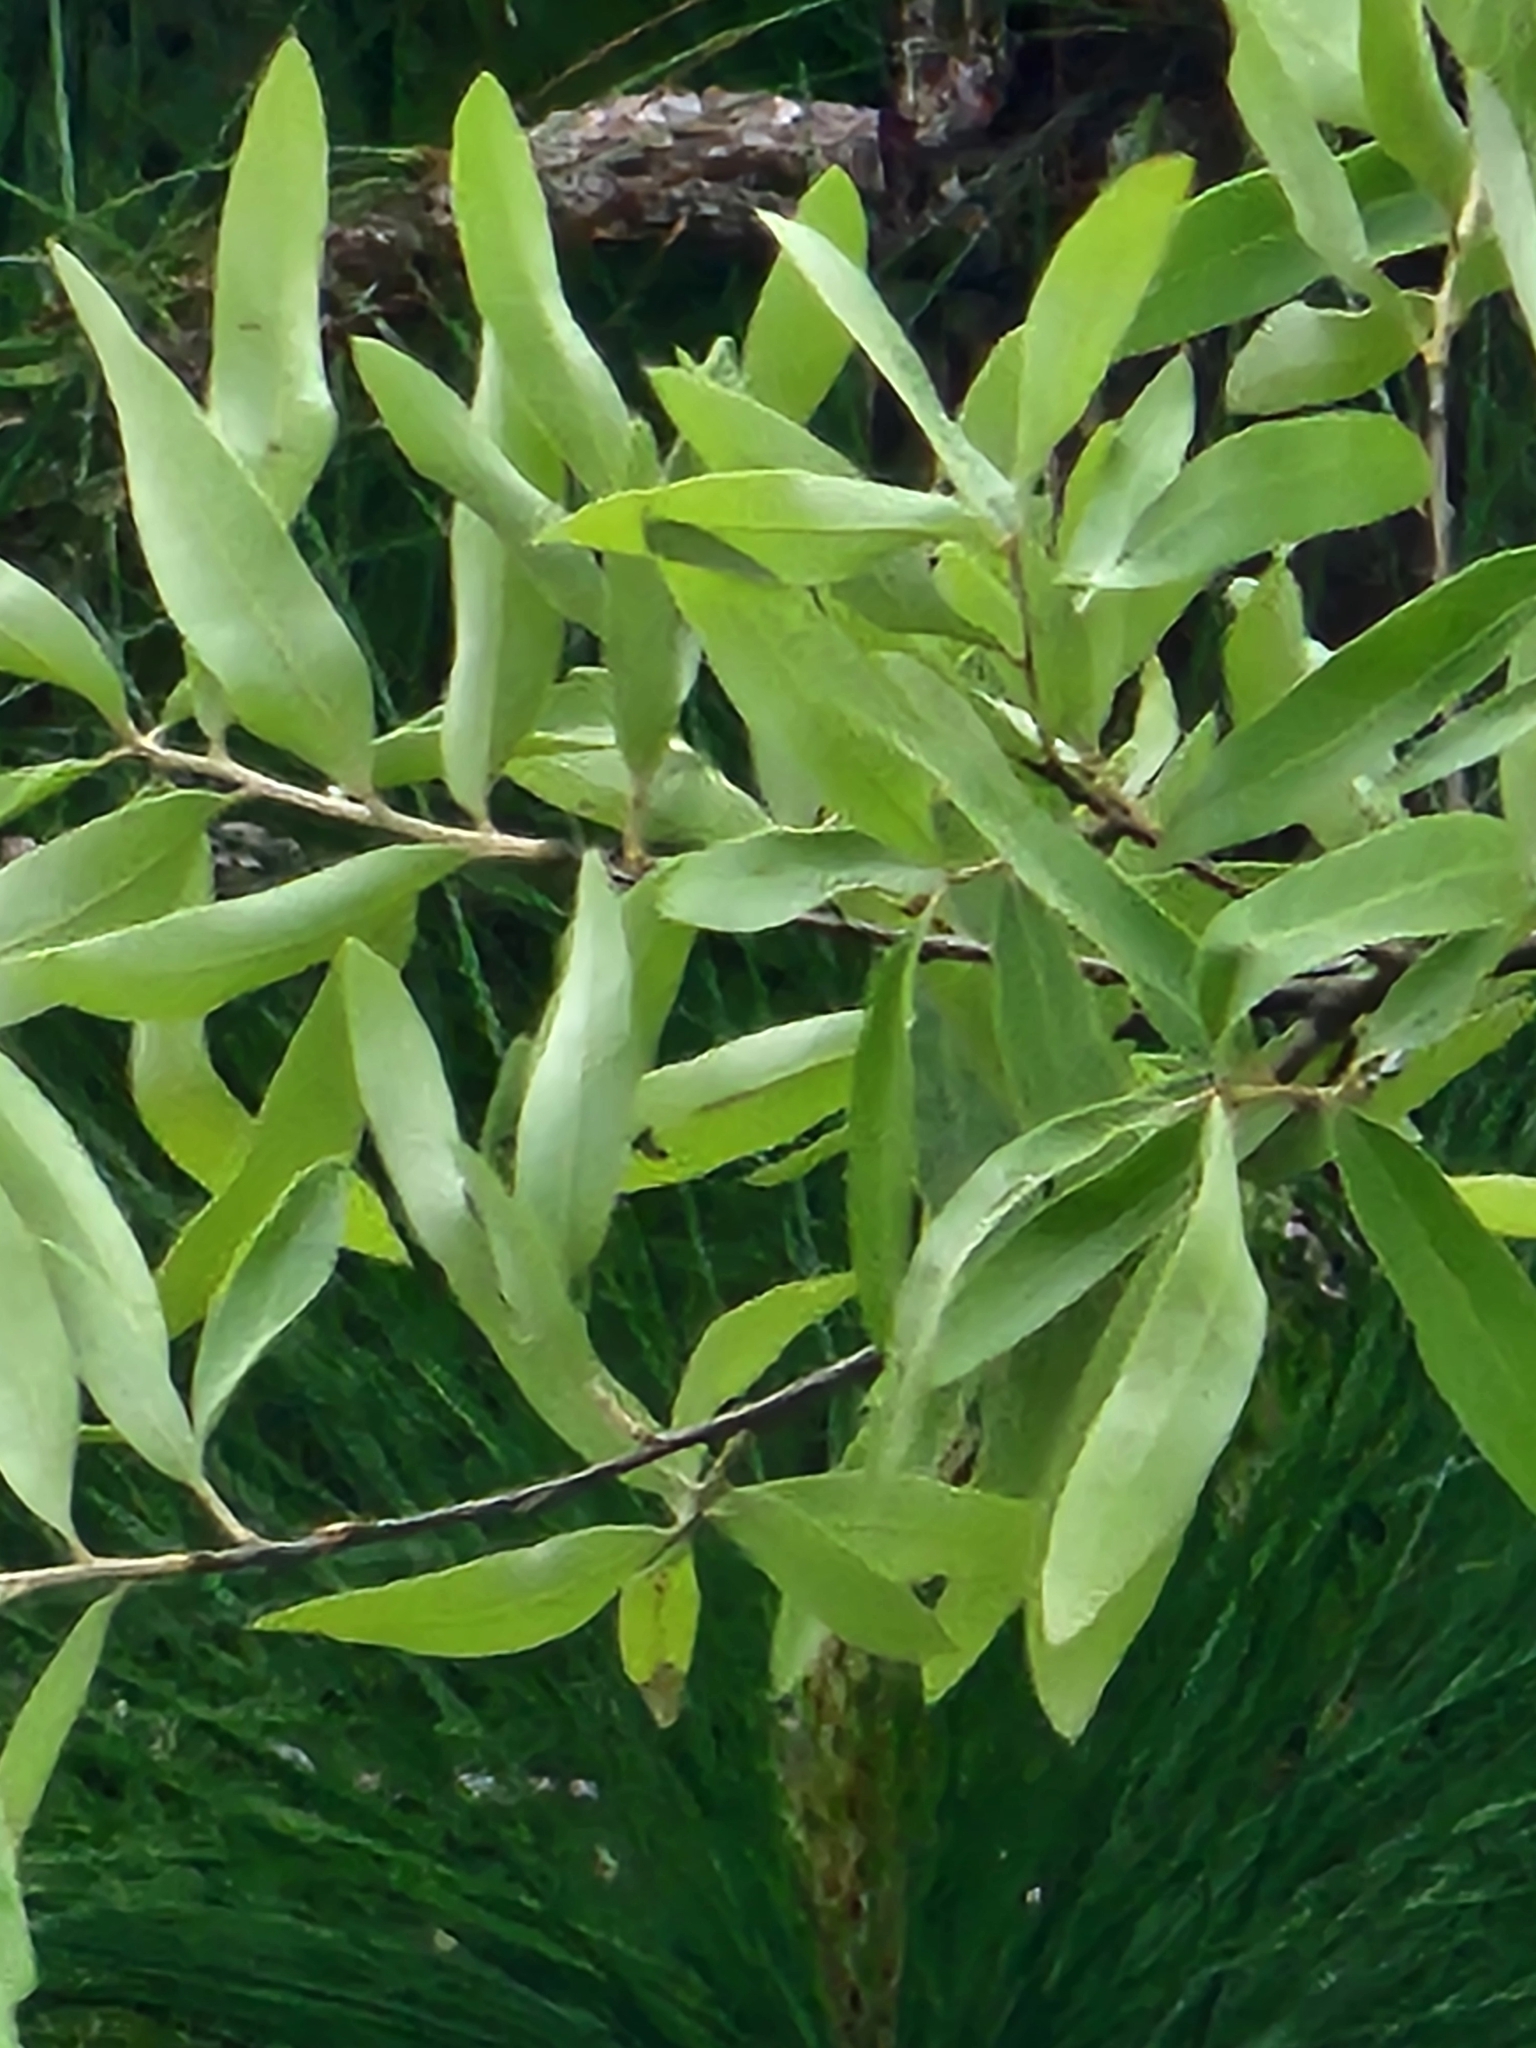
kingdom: Plantae
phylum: Tracheophyta
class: Magnoliopsida
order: Fagales
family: Fagaceae
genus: Quercus
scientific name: Quercus incana
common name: Bluejack oak
